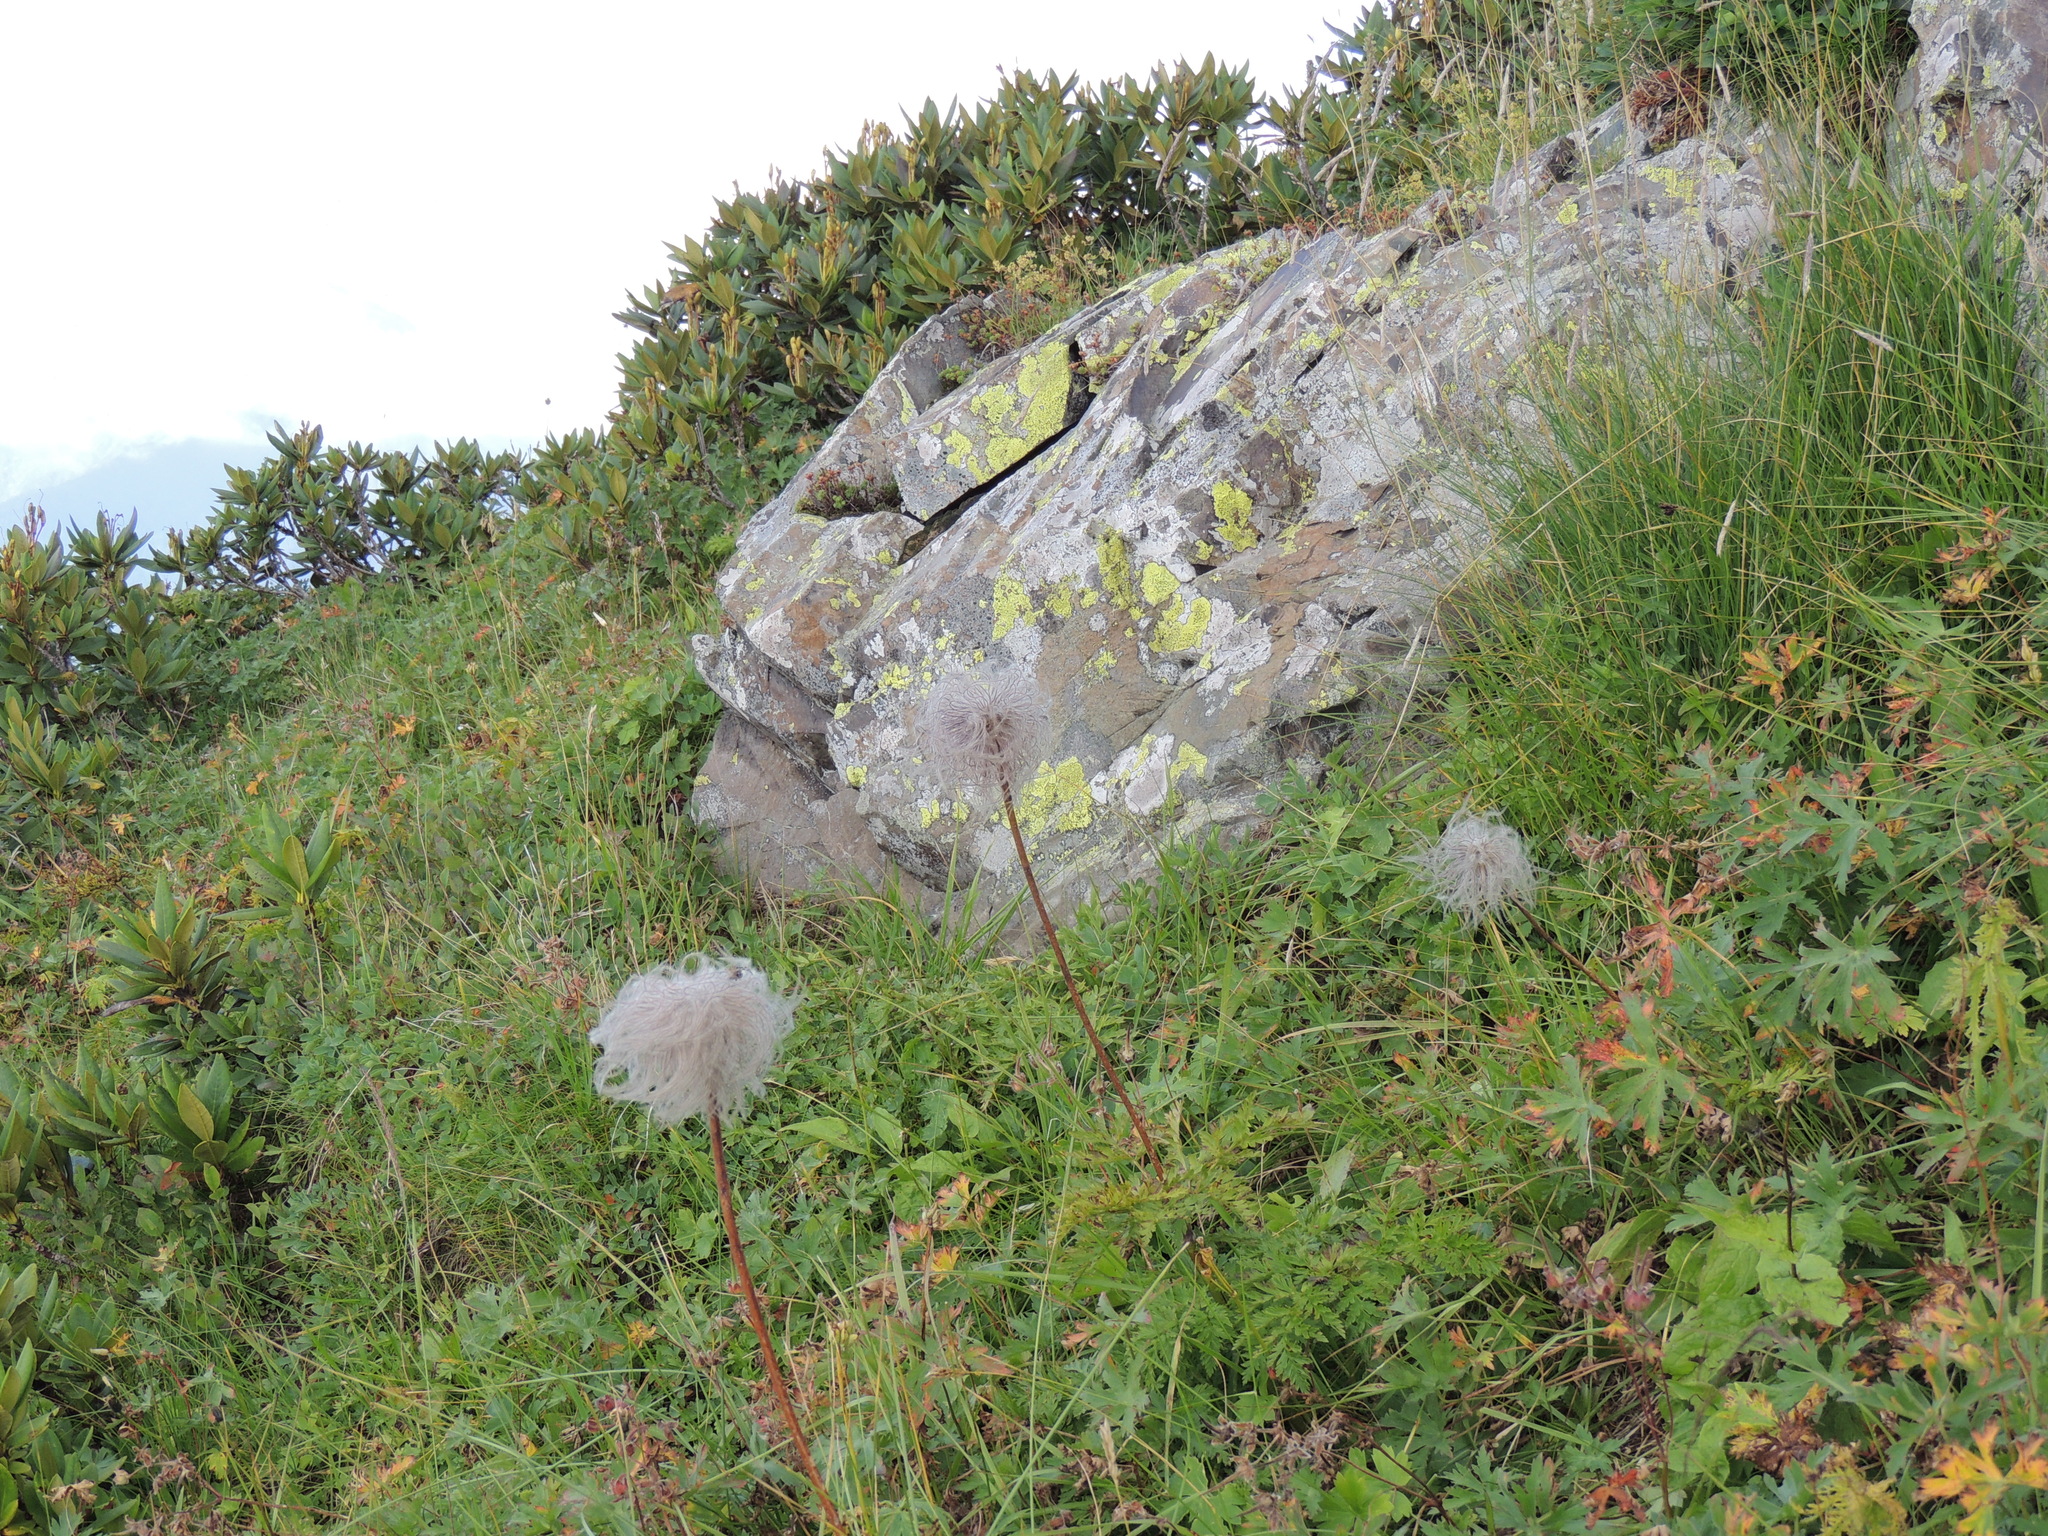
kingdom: Plantae
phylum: Tracheophyta
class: Magnoliopsida
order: Ranunculales
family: Ranunculaceae
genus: Pulsatilla
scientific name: Pulsatilla aurea
